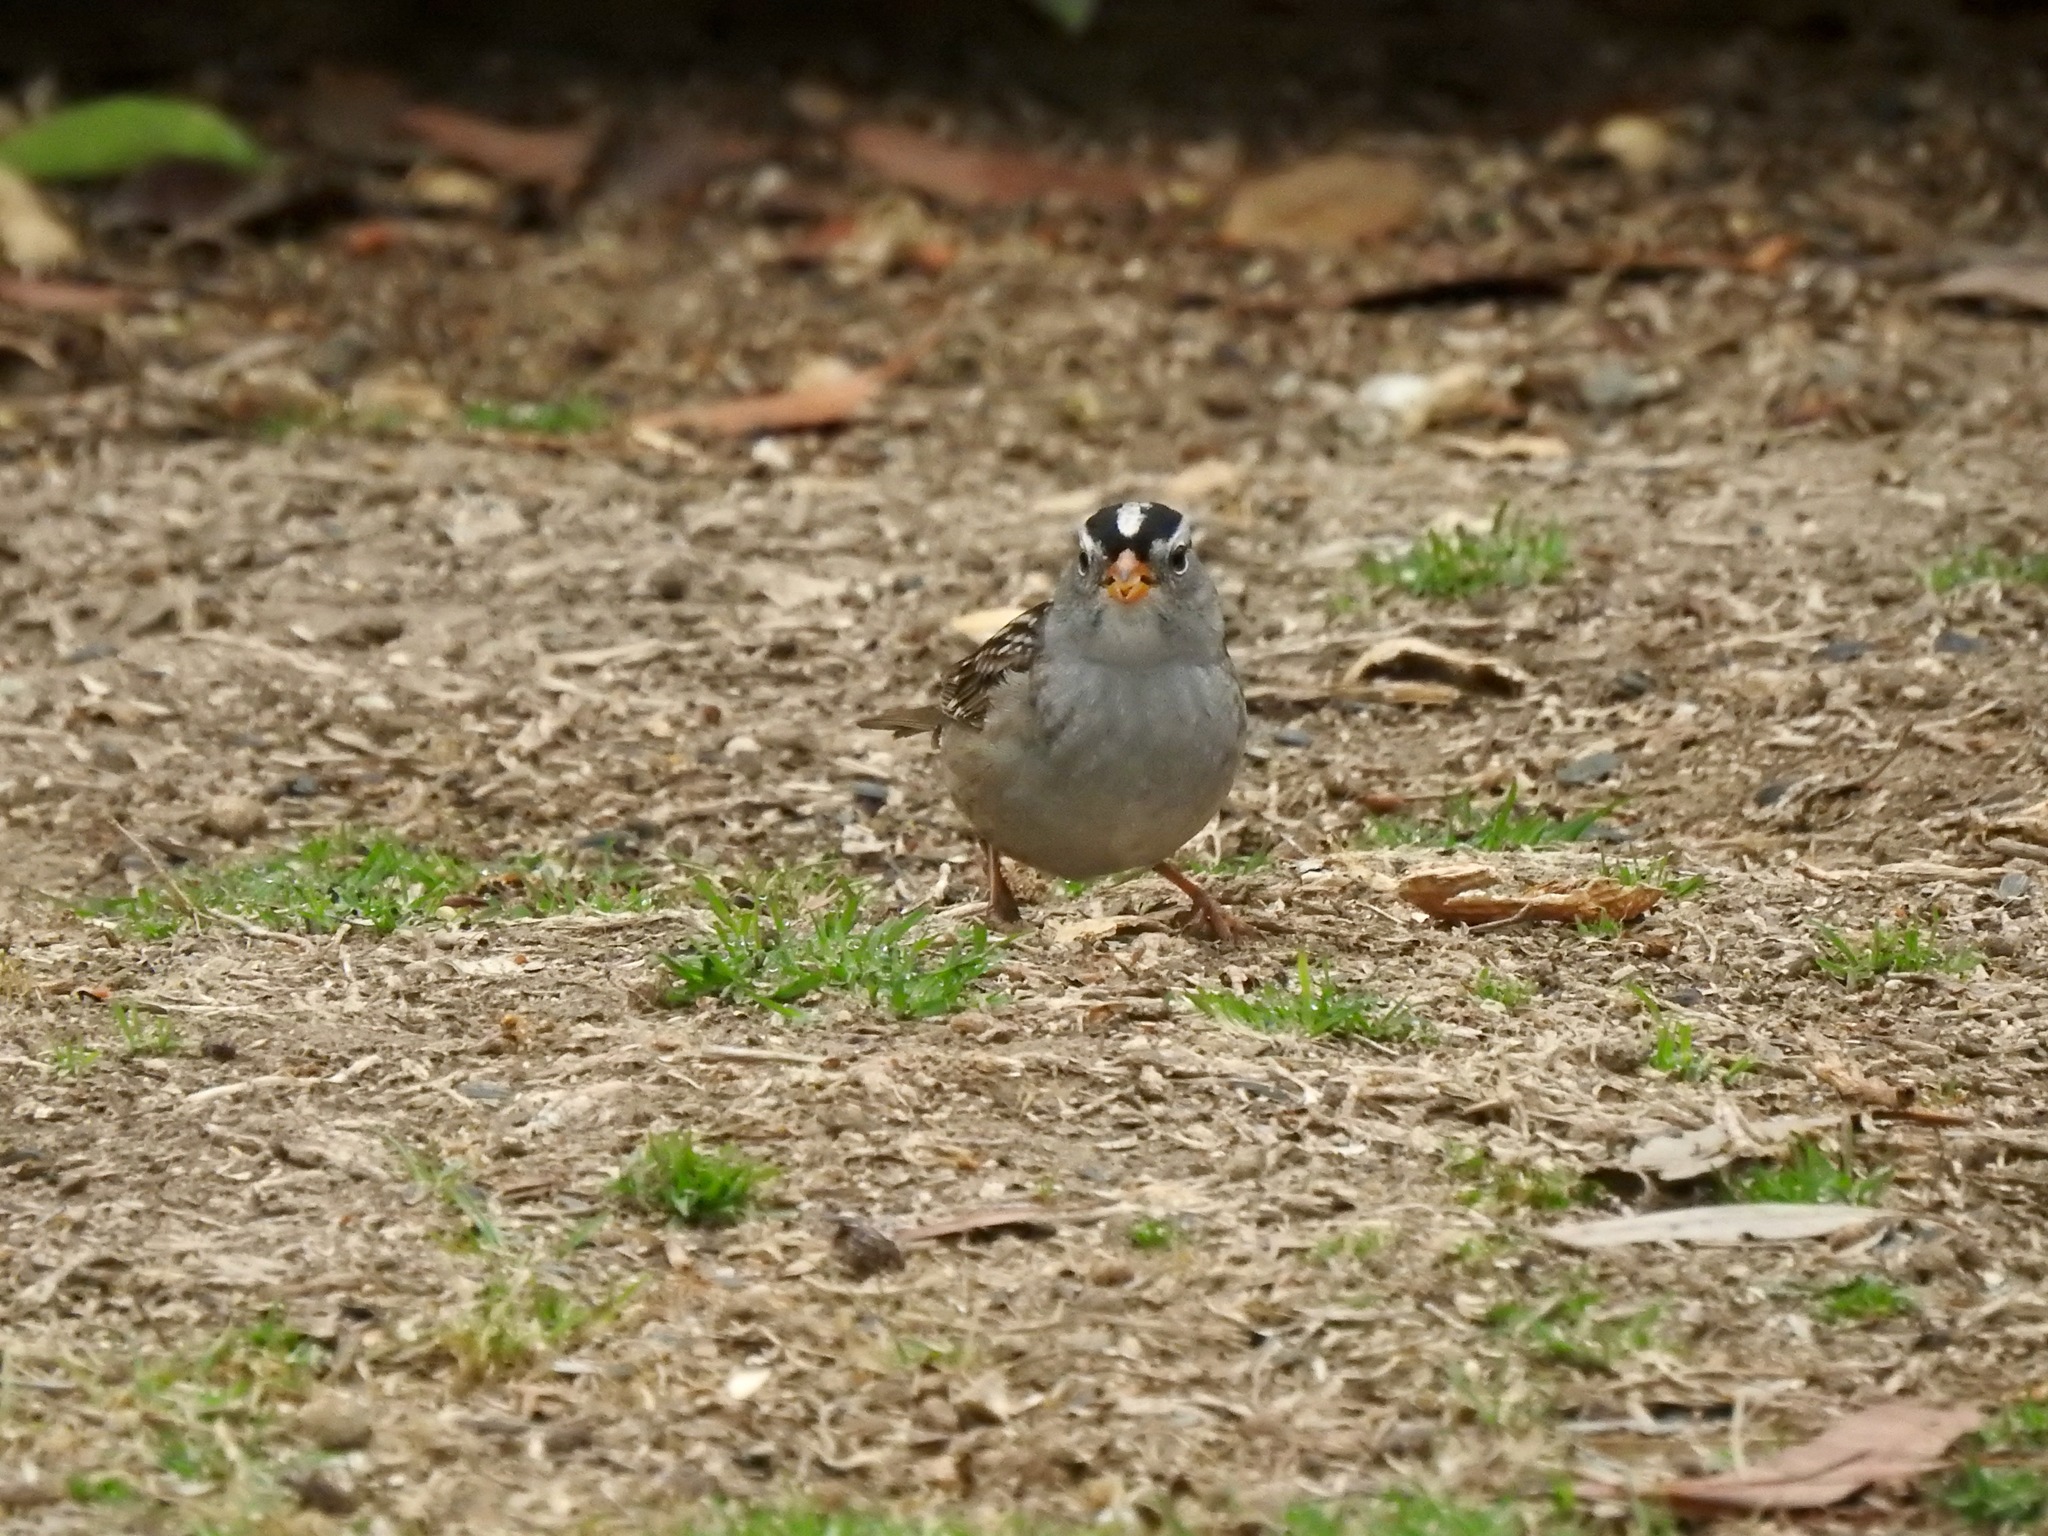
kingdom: Animalia
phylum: Chordata
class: Aves
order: Passeriformes
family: Passerellidae
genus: Zonotrichia
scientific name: Zonotrichia leucophrys
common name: White-crowned sparrow
